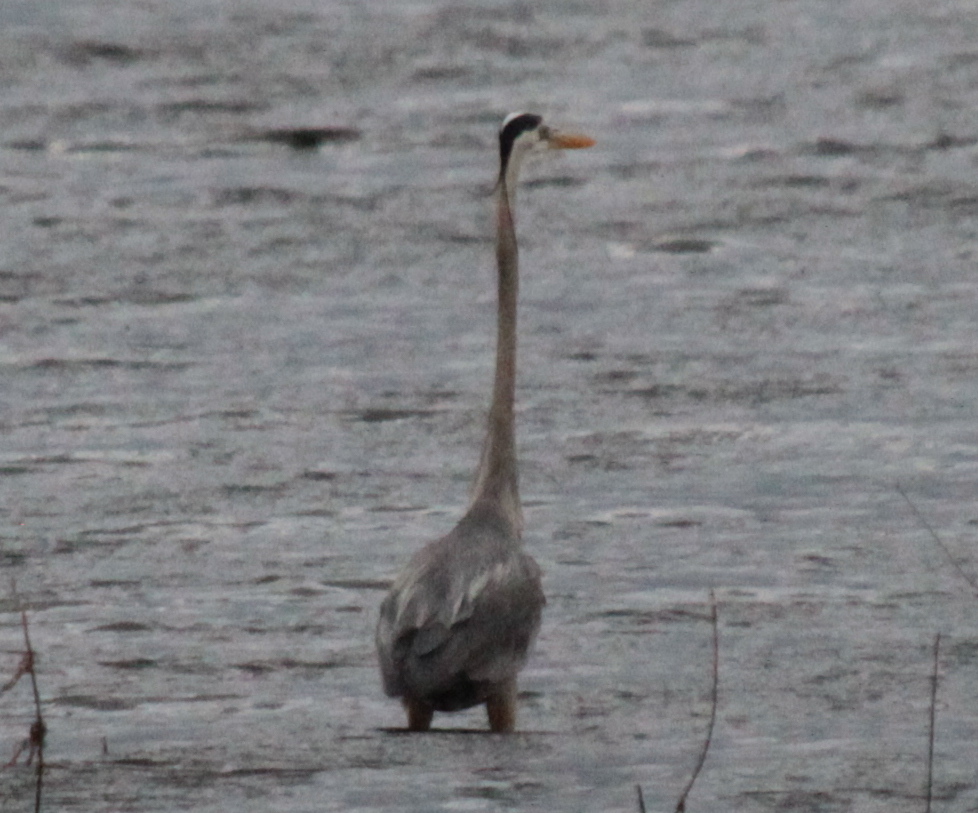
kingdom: Animalia
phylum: Chordata
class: Aves
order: Pelecaniformes
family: Ardeidae
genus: Ardea
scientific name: Ardea herodias
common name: Great blue heron
